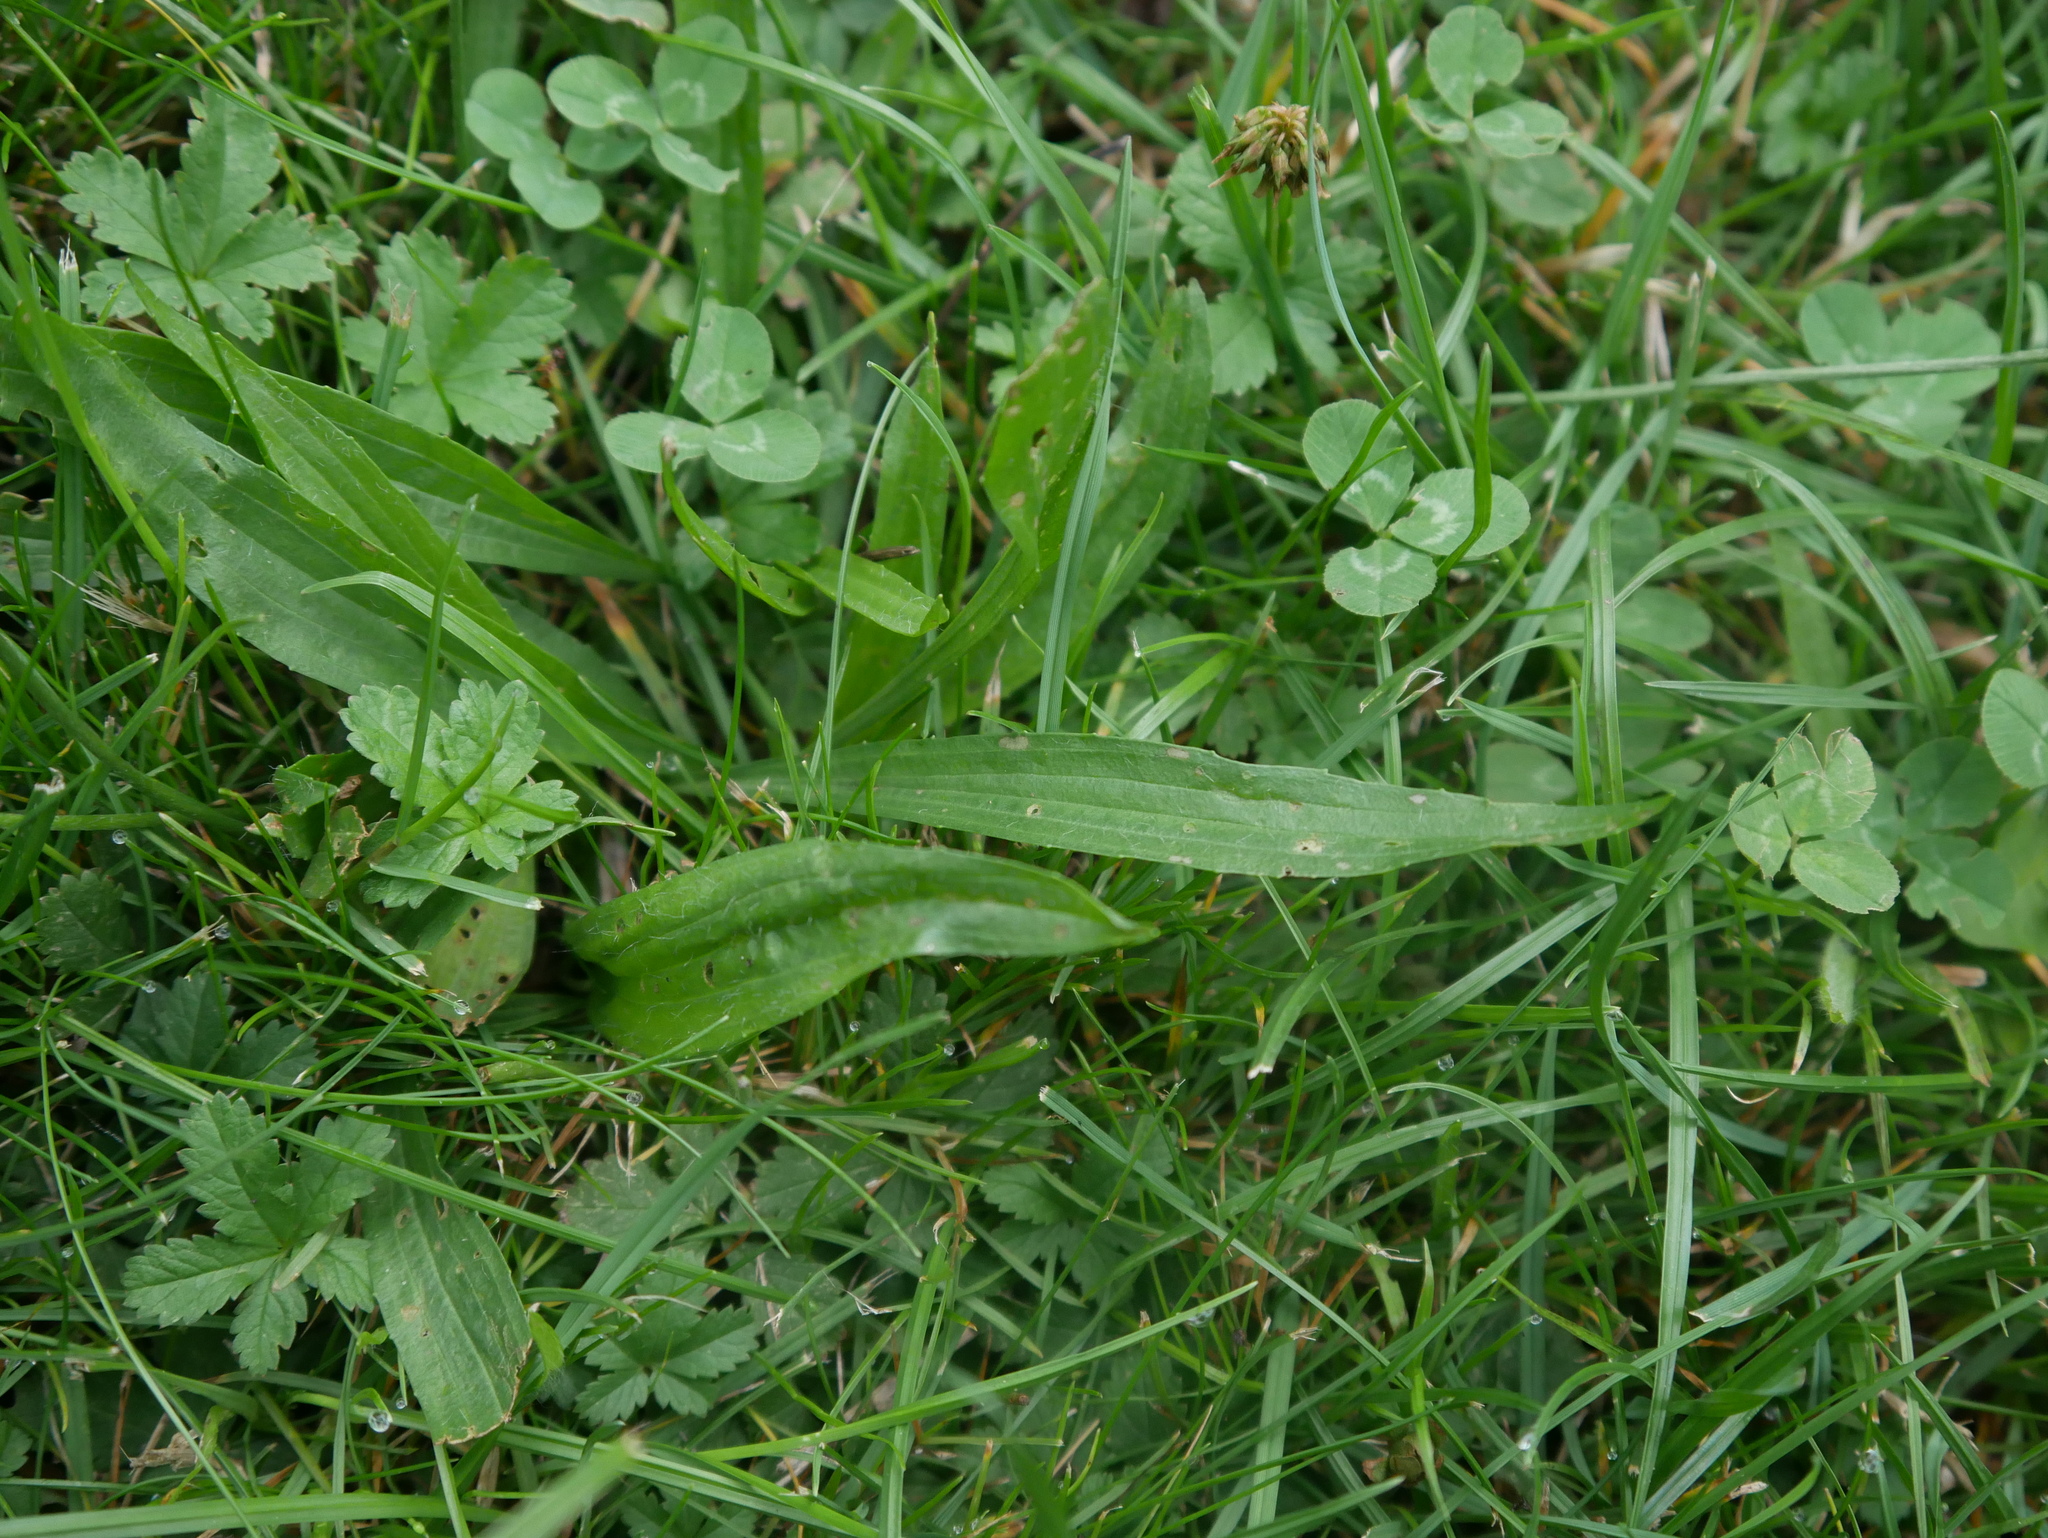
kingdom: Plantae
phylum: Tracheophyta
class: Magnoliopsida
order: Lamiales
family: Plantaginaceae
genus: Plantago
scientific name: Plantago lanceolata
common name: Ribwort plantain
